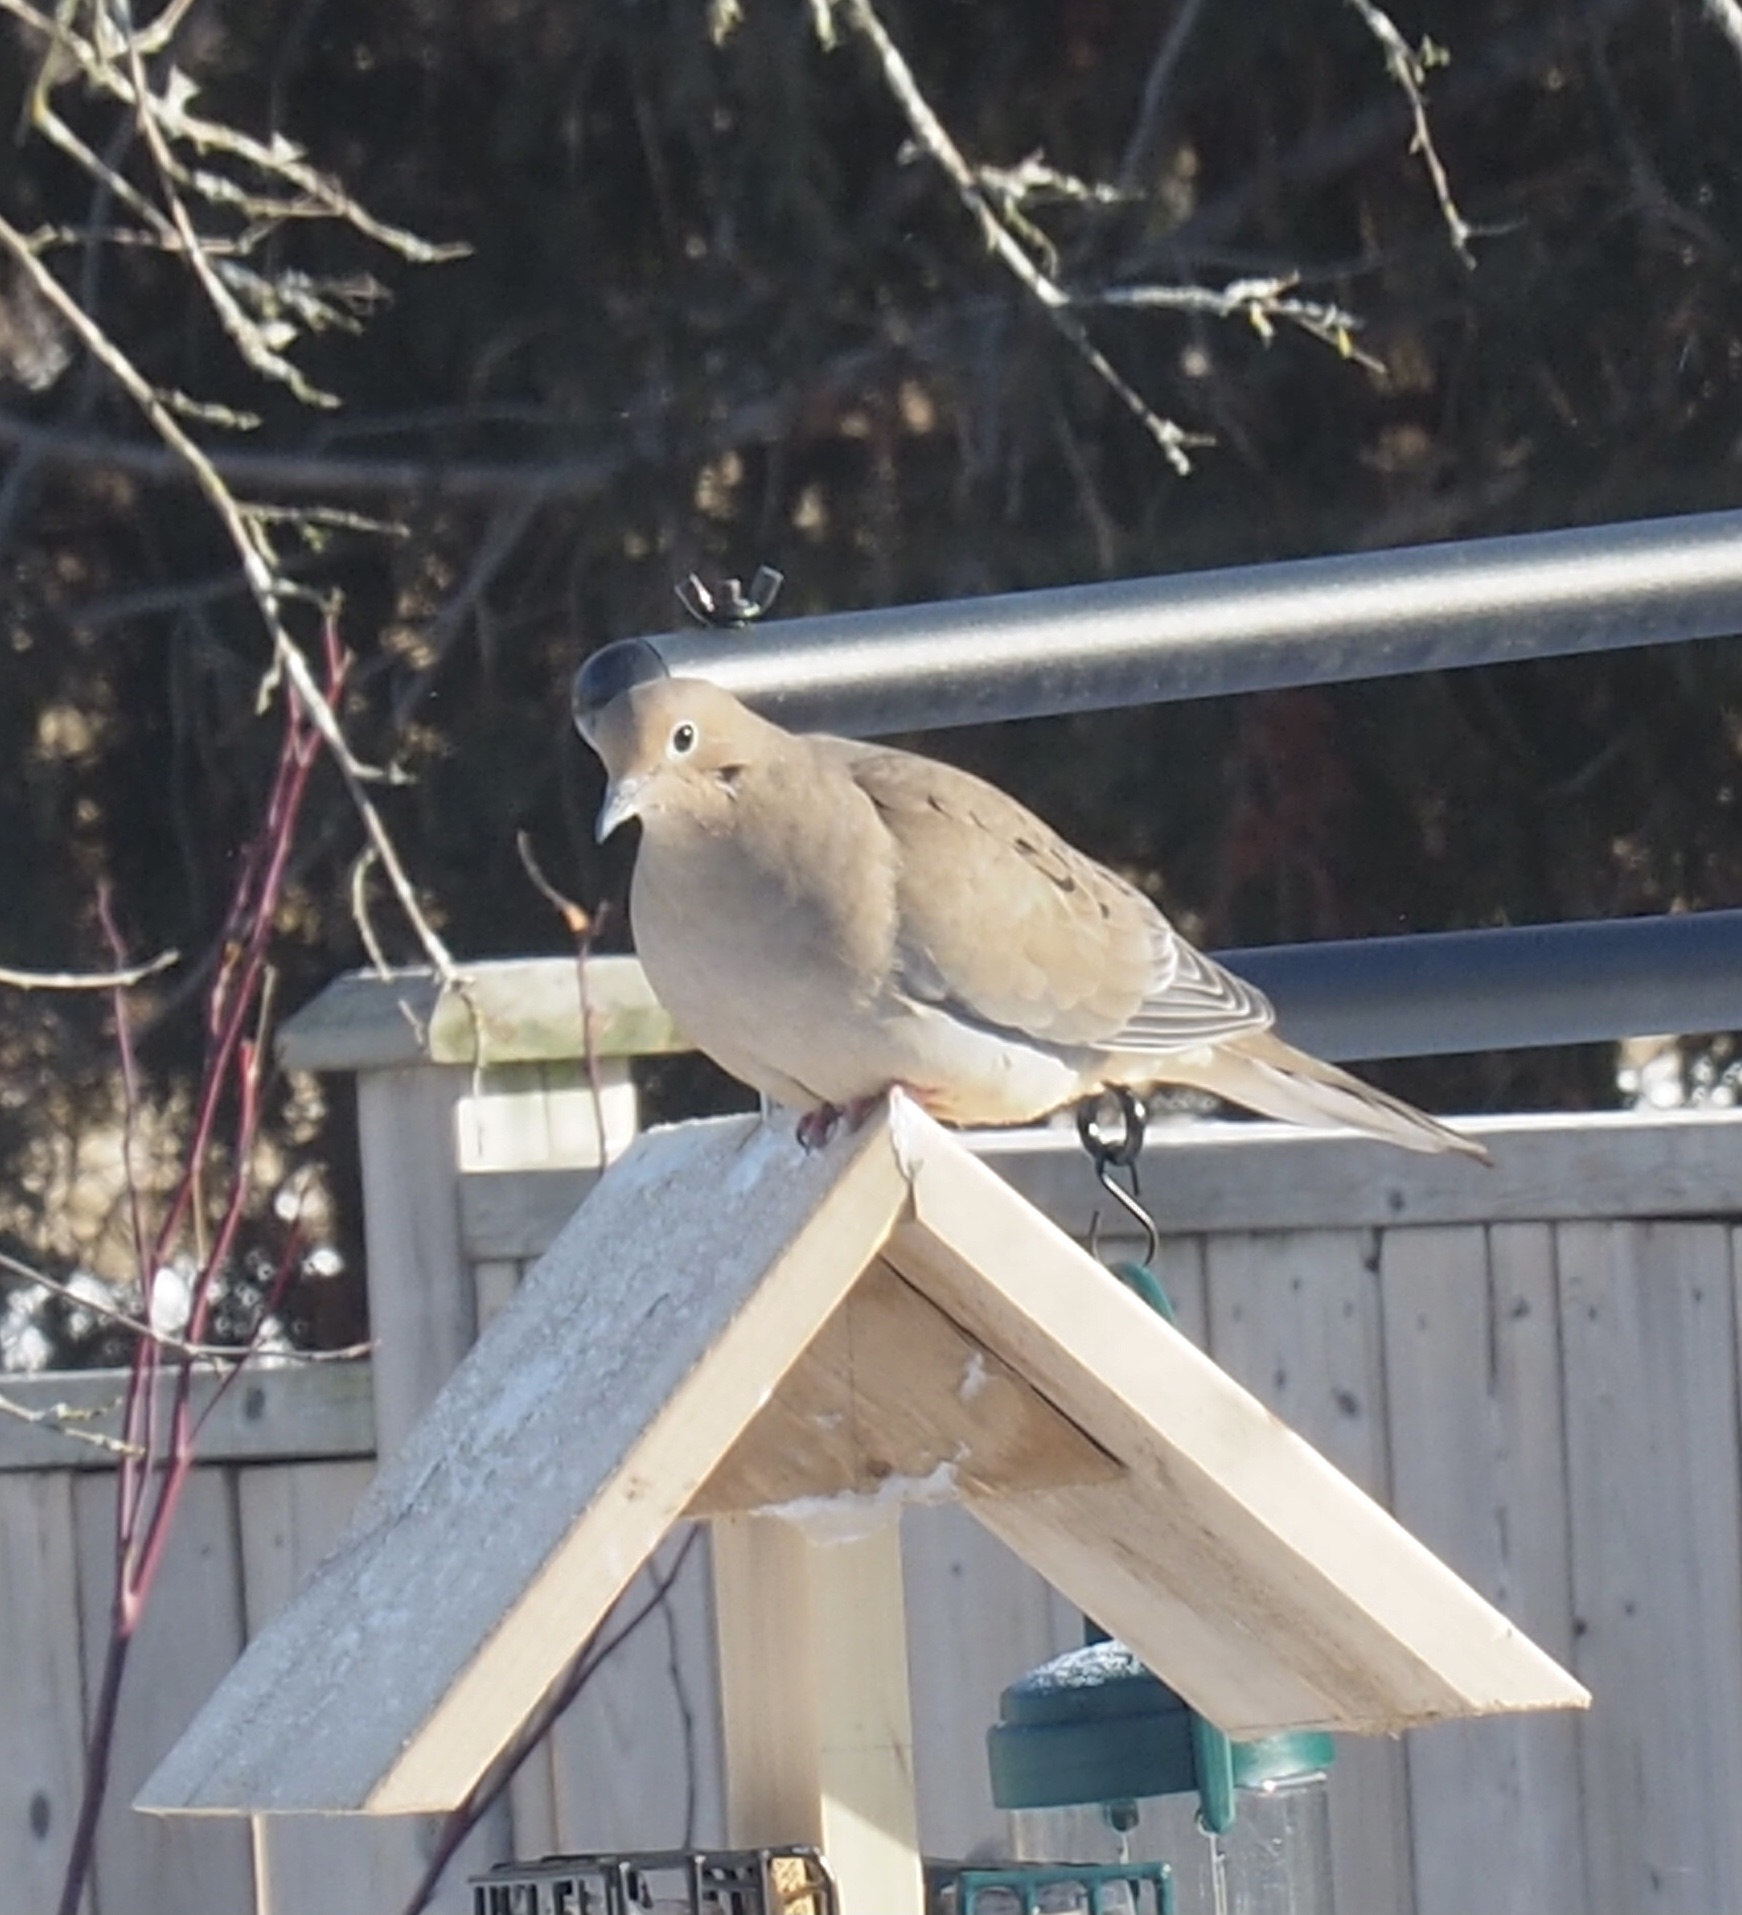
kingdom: Animalia
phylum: Chordata
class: Aves
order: Columbiformes
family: Columbidae
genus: Zenaida
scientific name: Zenaida macroura
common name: Mourning dove
